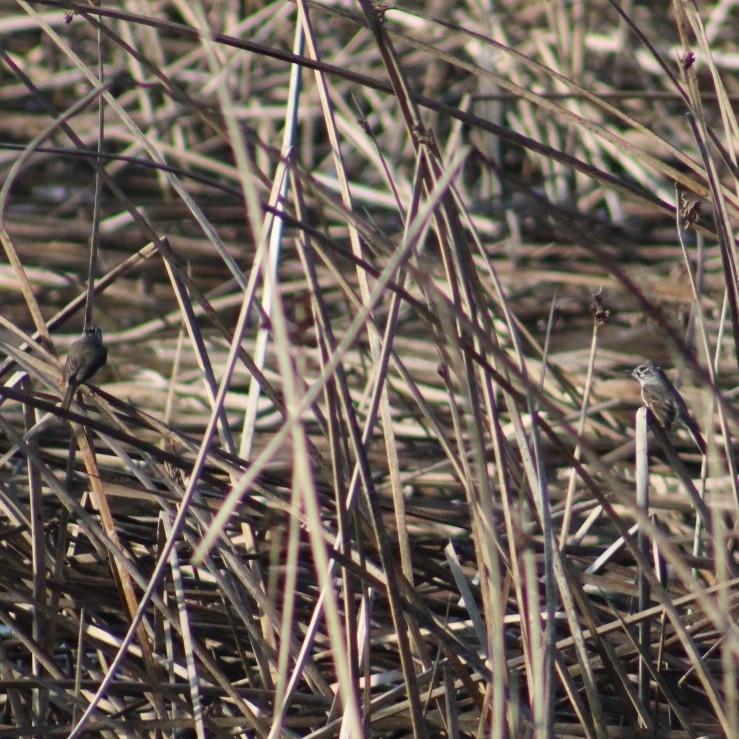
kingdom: Animalia
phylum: Chordata
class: Aves
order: Passeriformes
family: Tyrannidae
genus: Anairetes
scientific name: Anairetes parulus
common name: Tufted tit-tyrant
